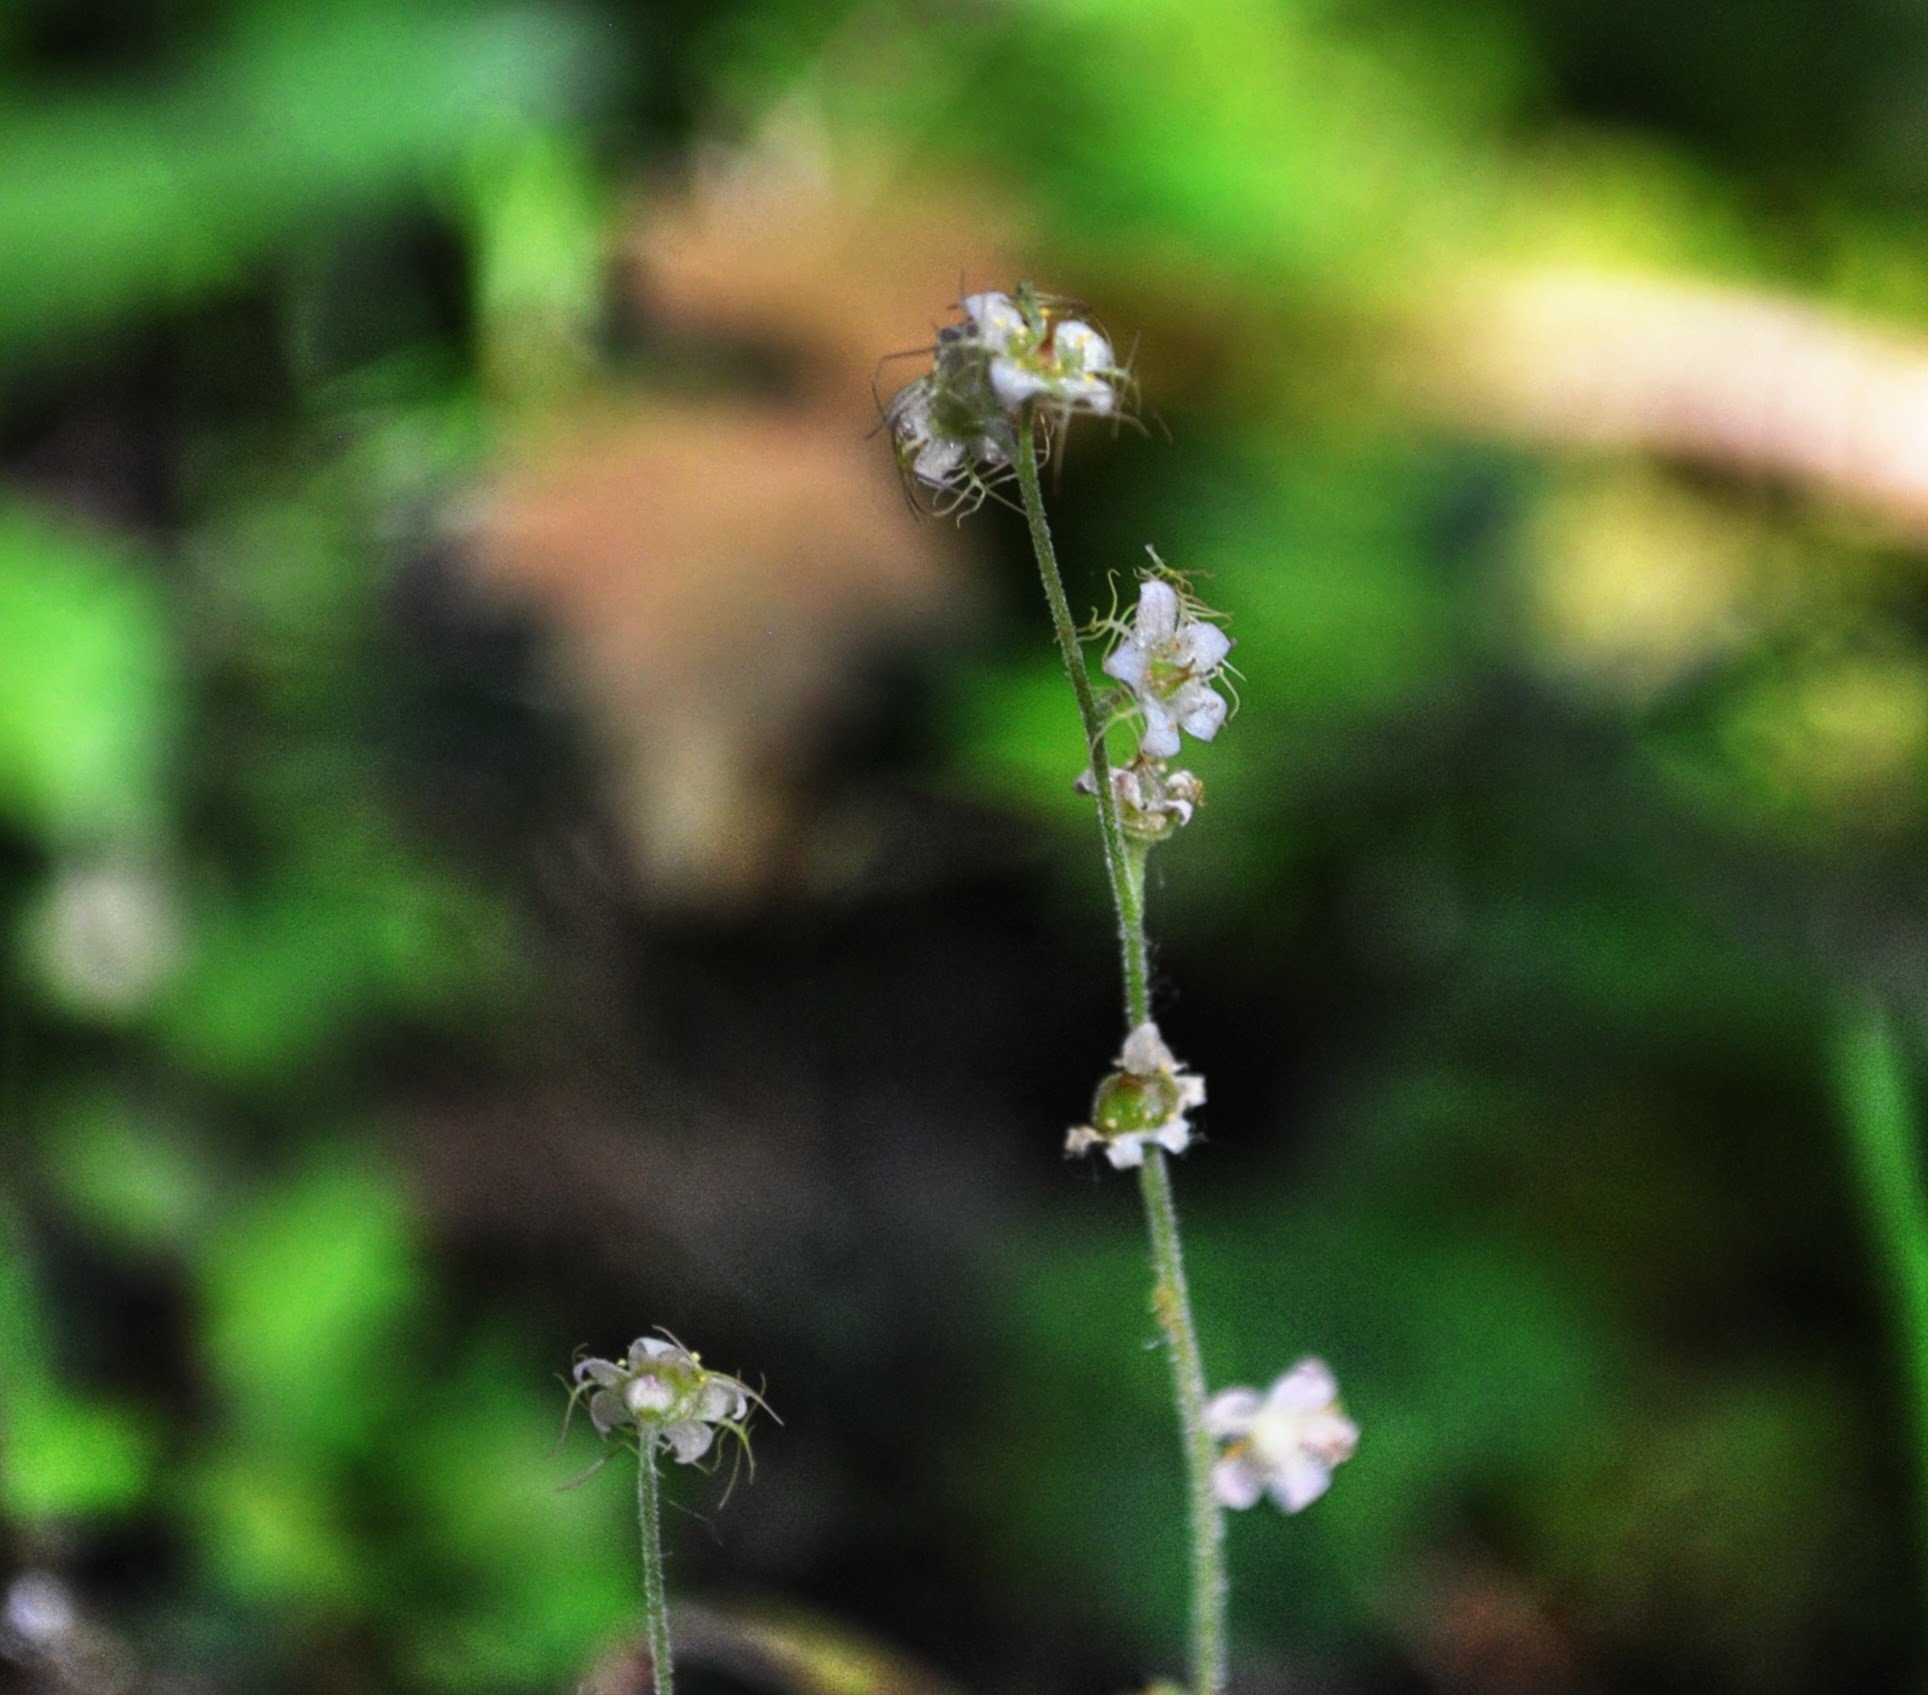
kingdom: Plantae
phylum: Tracheophyta
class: Magnoliopsida
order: Saxifragales
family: Saxifragaceae
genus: Mitella
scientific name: Mitella nuda
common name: Bare-stemmed bishop's-cap
